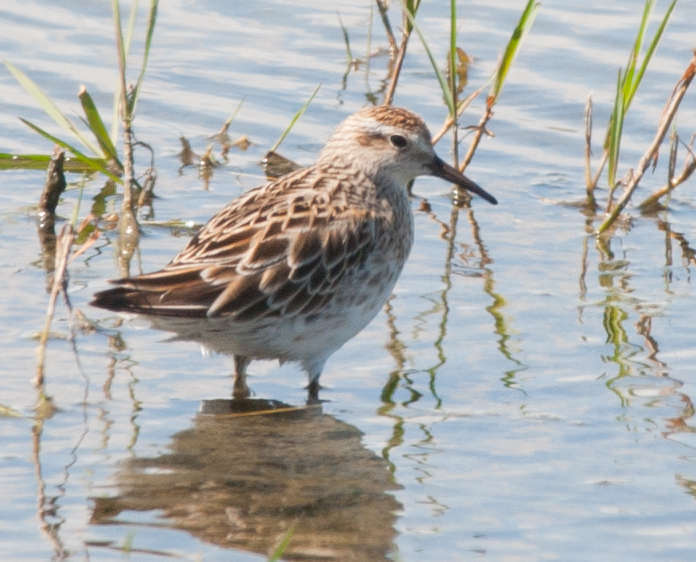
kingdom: Animalia
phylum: Chordata
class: Aves
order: Charadriiformes
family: Scolopacidae
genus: Calidris
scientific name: Calidris acuminata
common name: Sharp-tailed sandpiper
